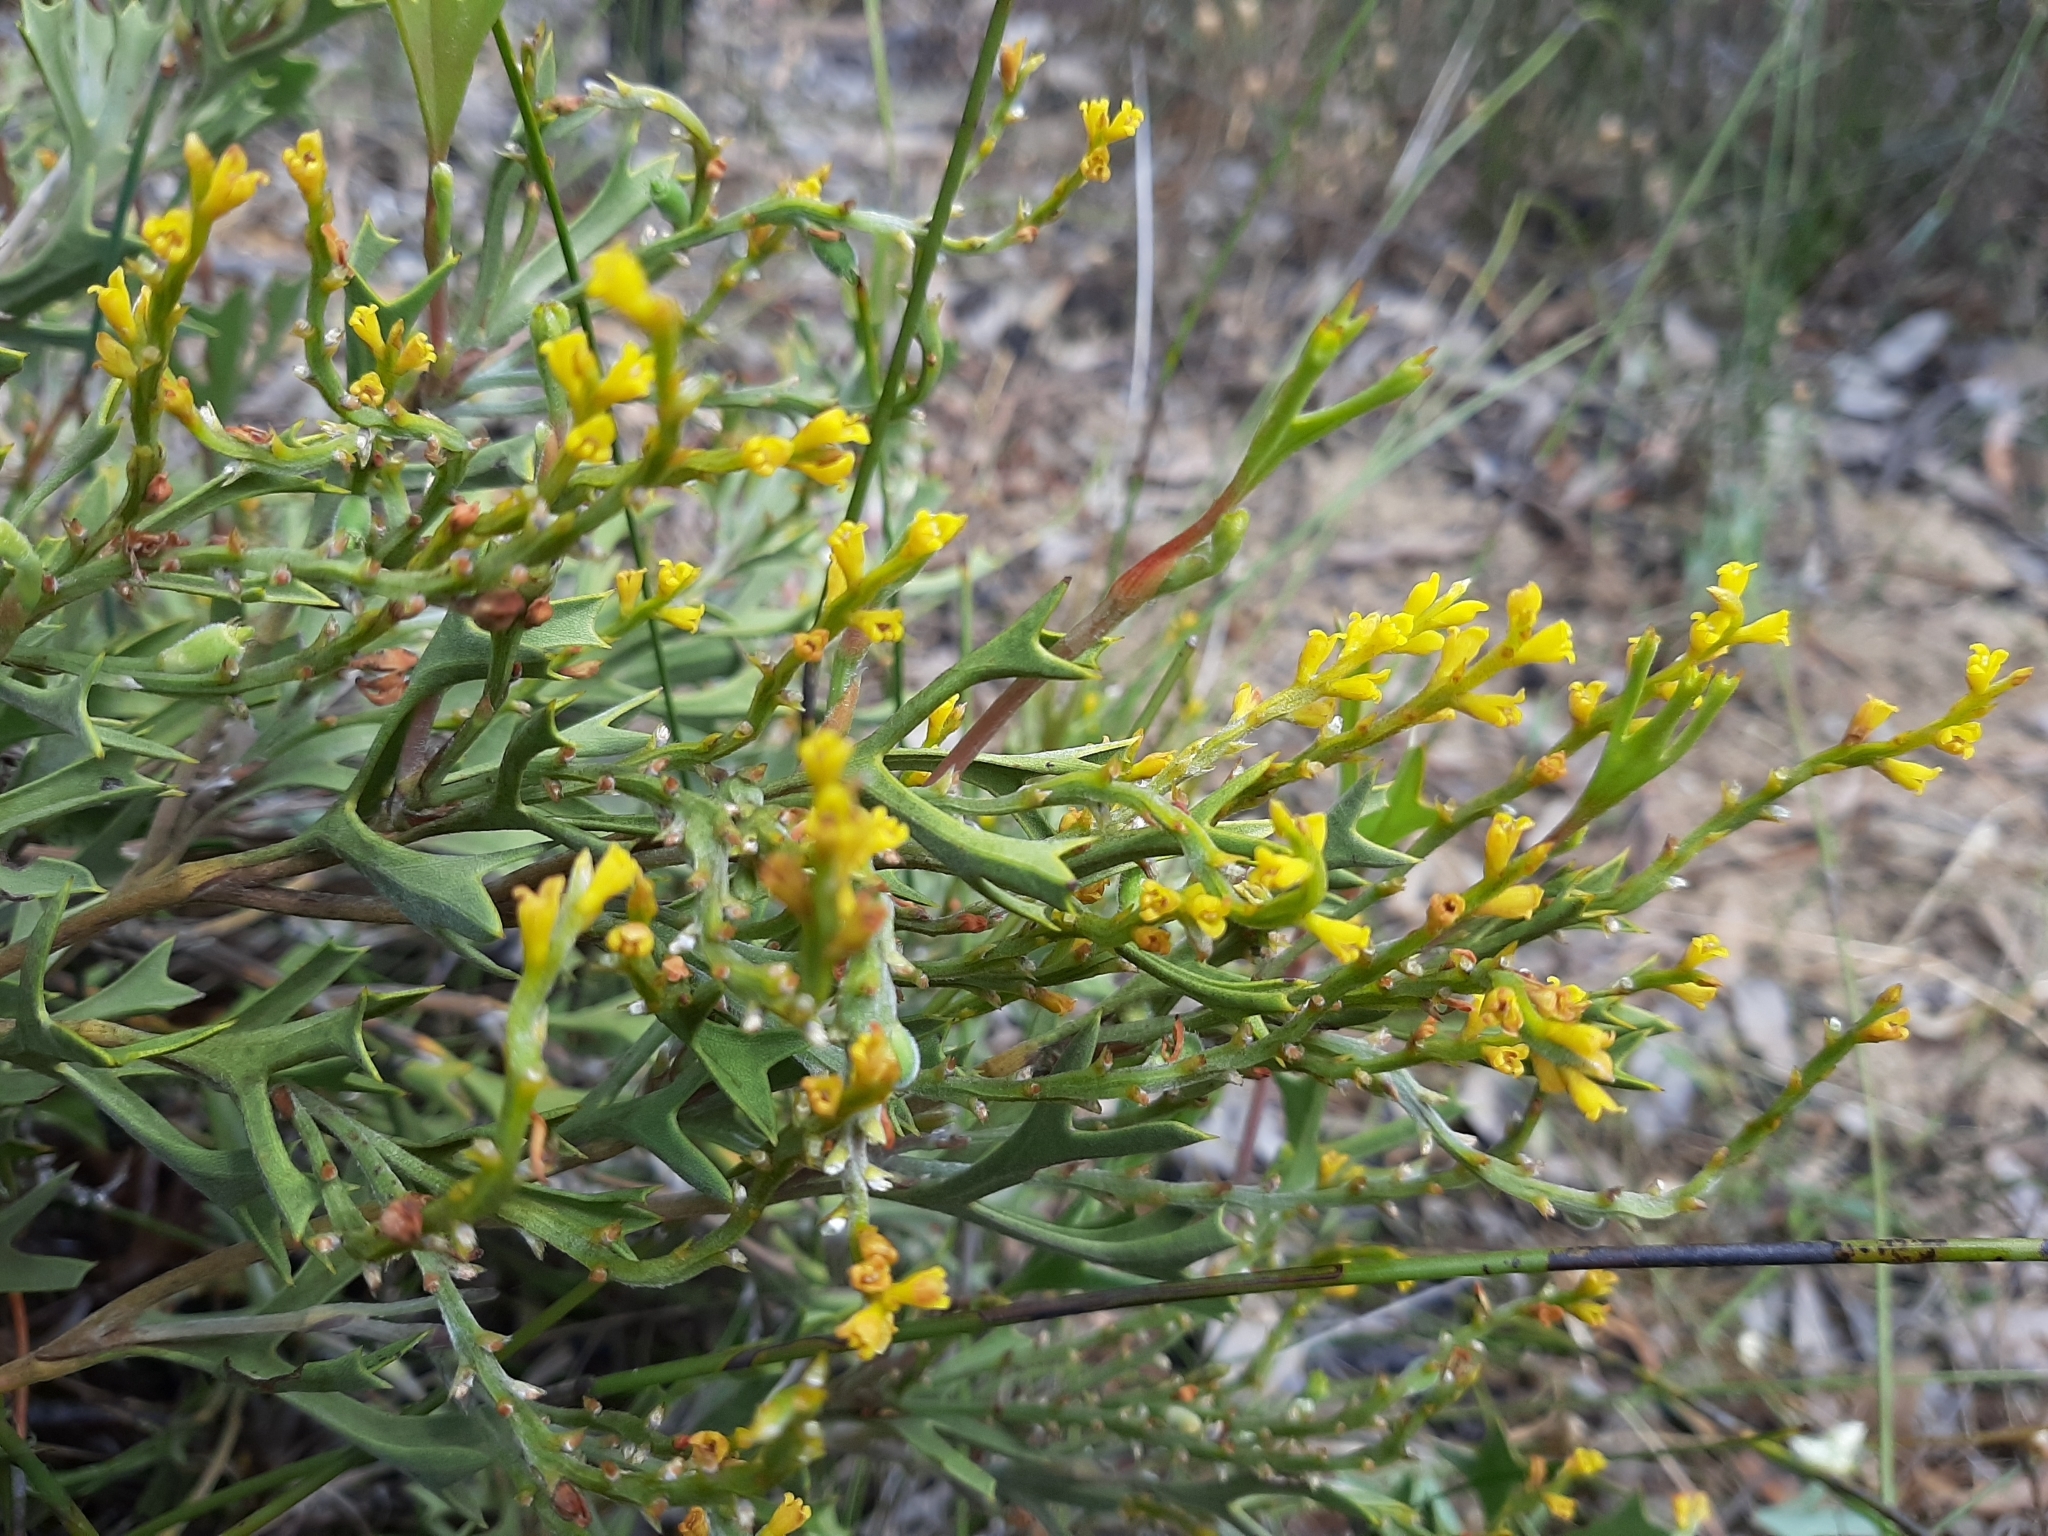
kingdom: Plantae
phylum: Tracheophyta
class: Magnoliopsida
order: Proteales
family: Proteaceae
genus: Synaphea
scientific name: Synaphea spinulosa
